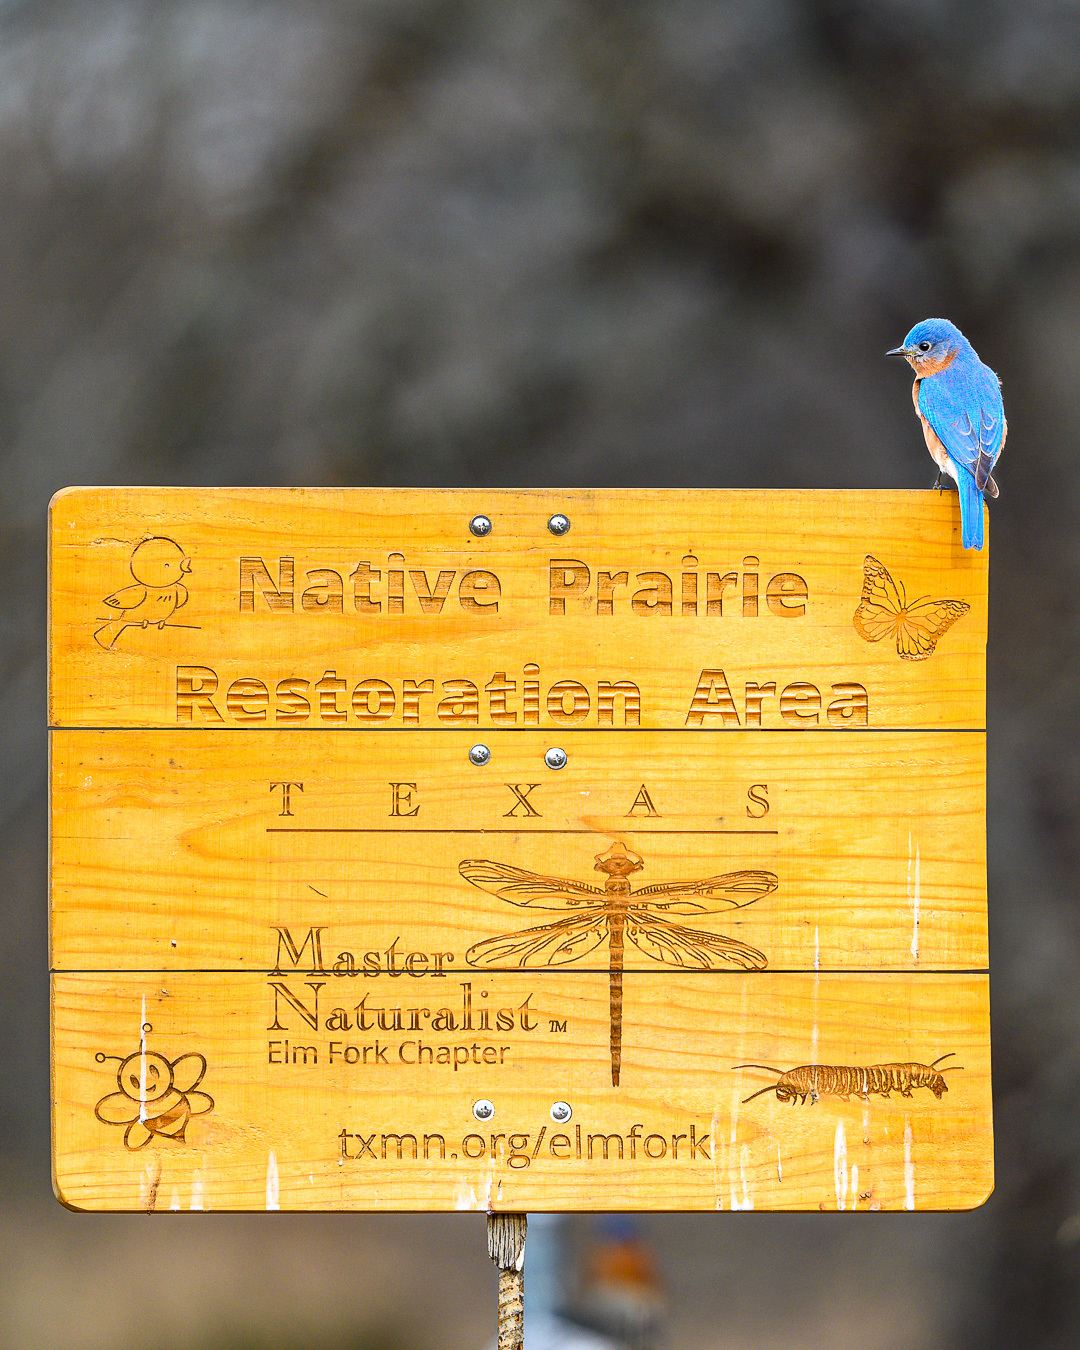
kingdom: Animalia
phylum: Chordata
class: Aves
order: Passeriformes
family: Turdidae
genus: Sialia
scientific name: Sialia sialis
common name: Eastern bluebird
